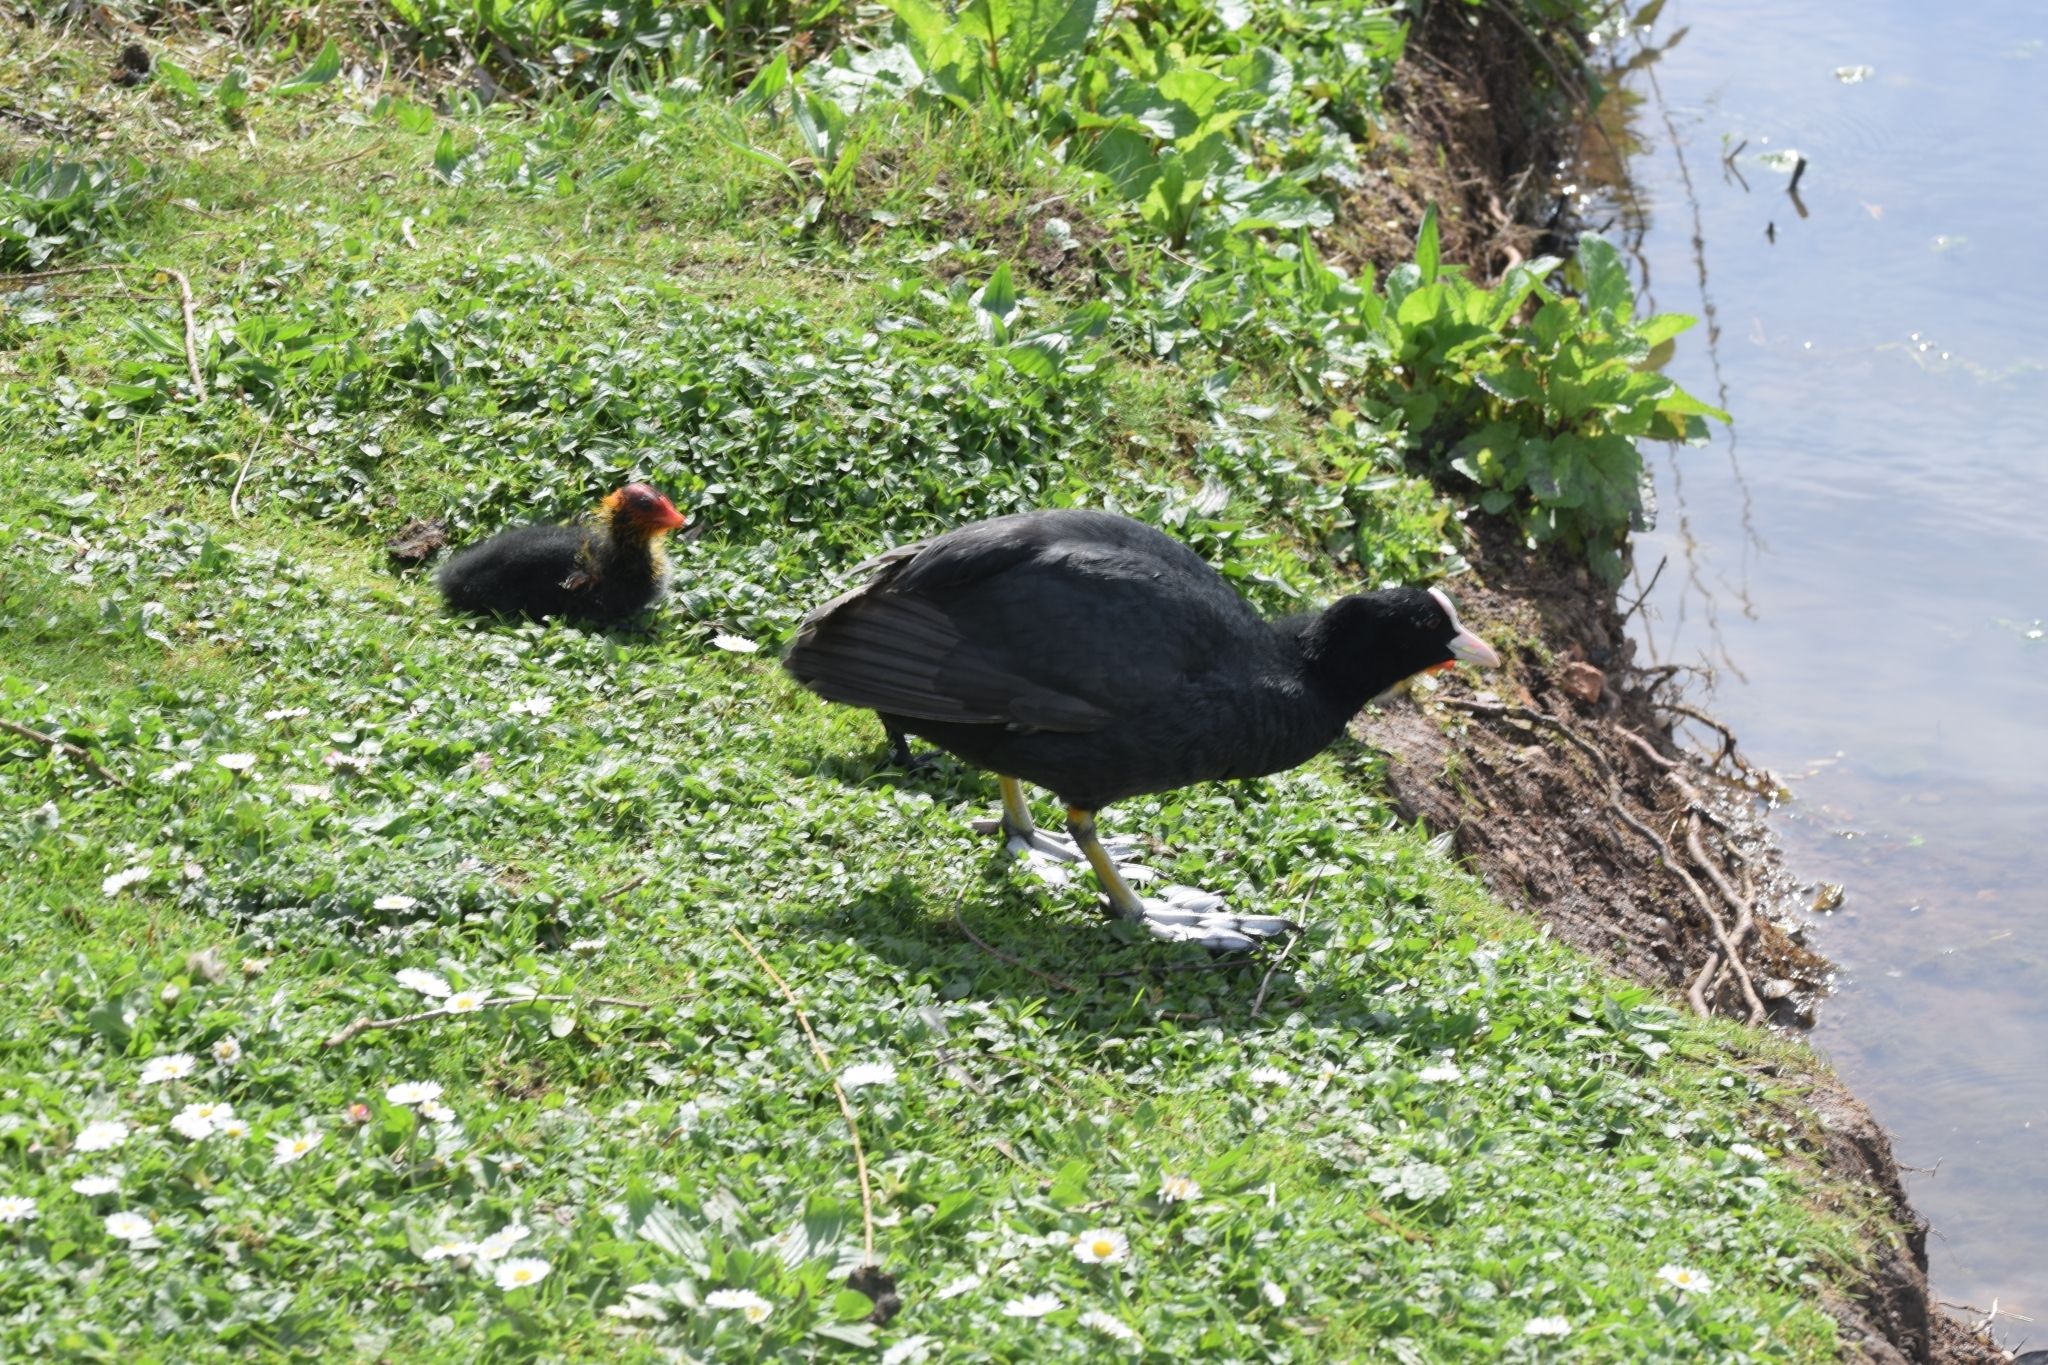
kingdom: Animalia
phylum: Chordata
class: Aves
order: Gruiformes
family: Rallidae
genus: Fulica
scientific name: Fulica atra
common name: Eurasian coot
